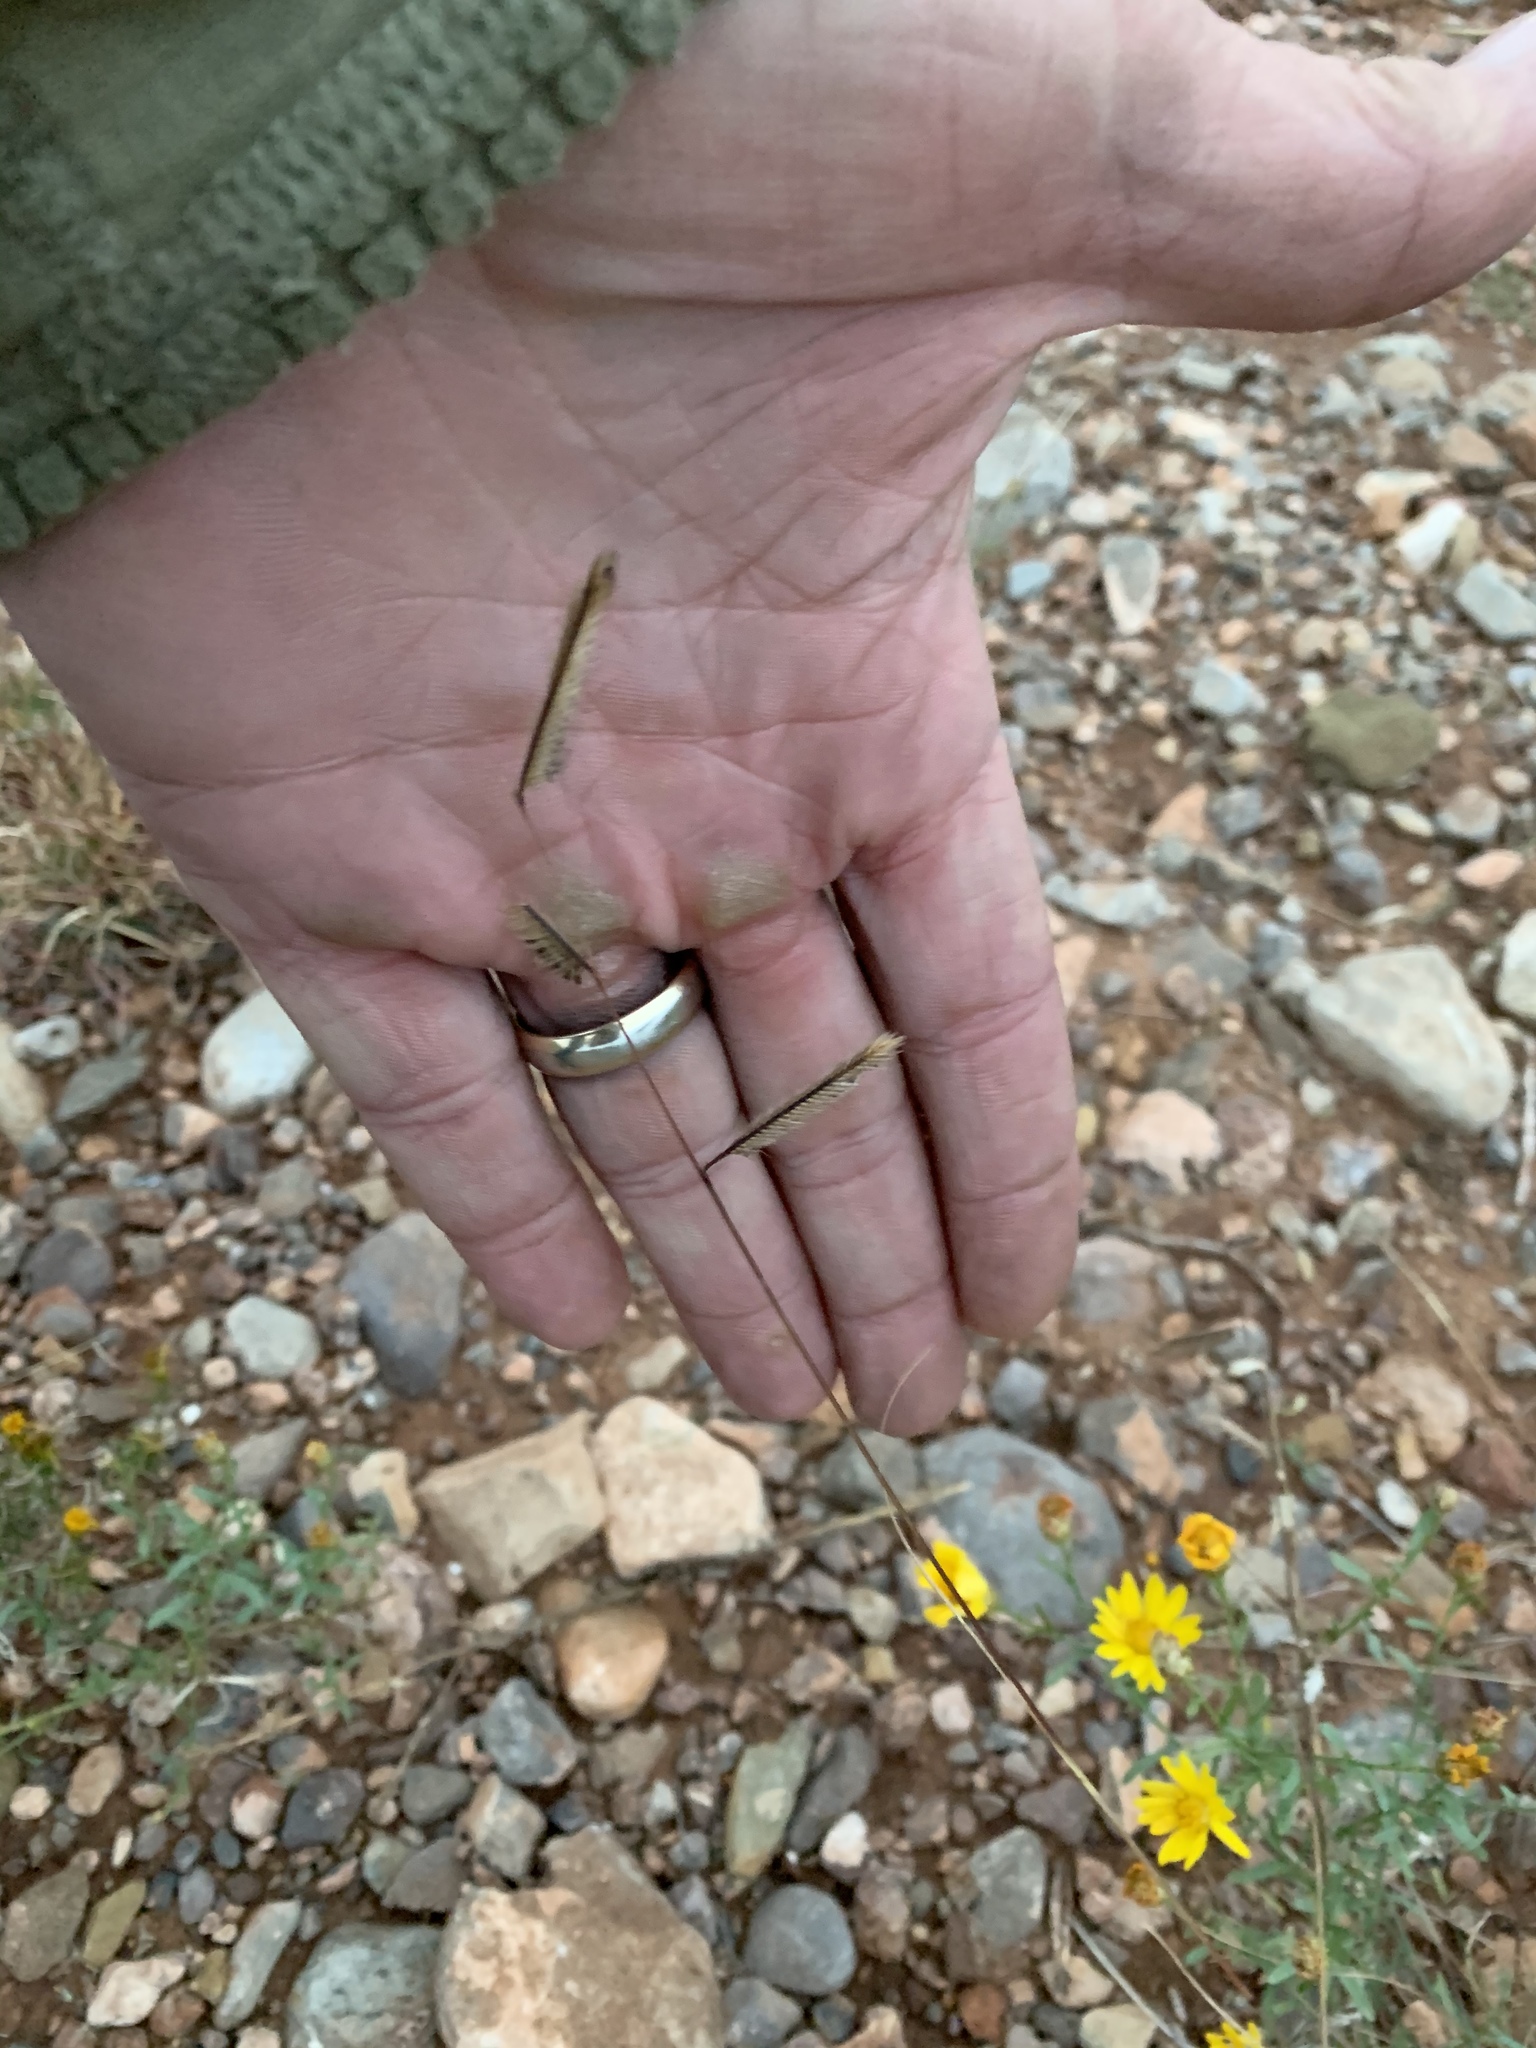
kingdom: Plantae
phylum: Tracheophyta
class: Liliopsida
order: Poales
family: Poaceae
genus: Bouteloua
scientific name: Bouteloua gracilis
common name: Blue grama
